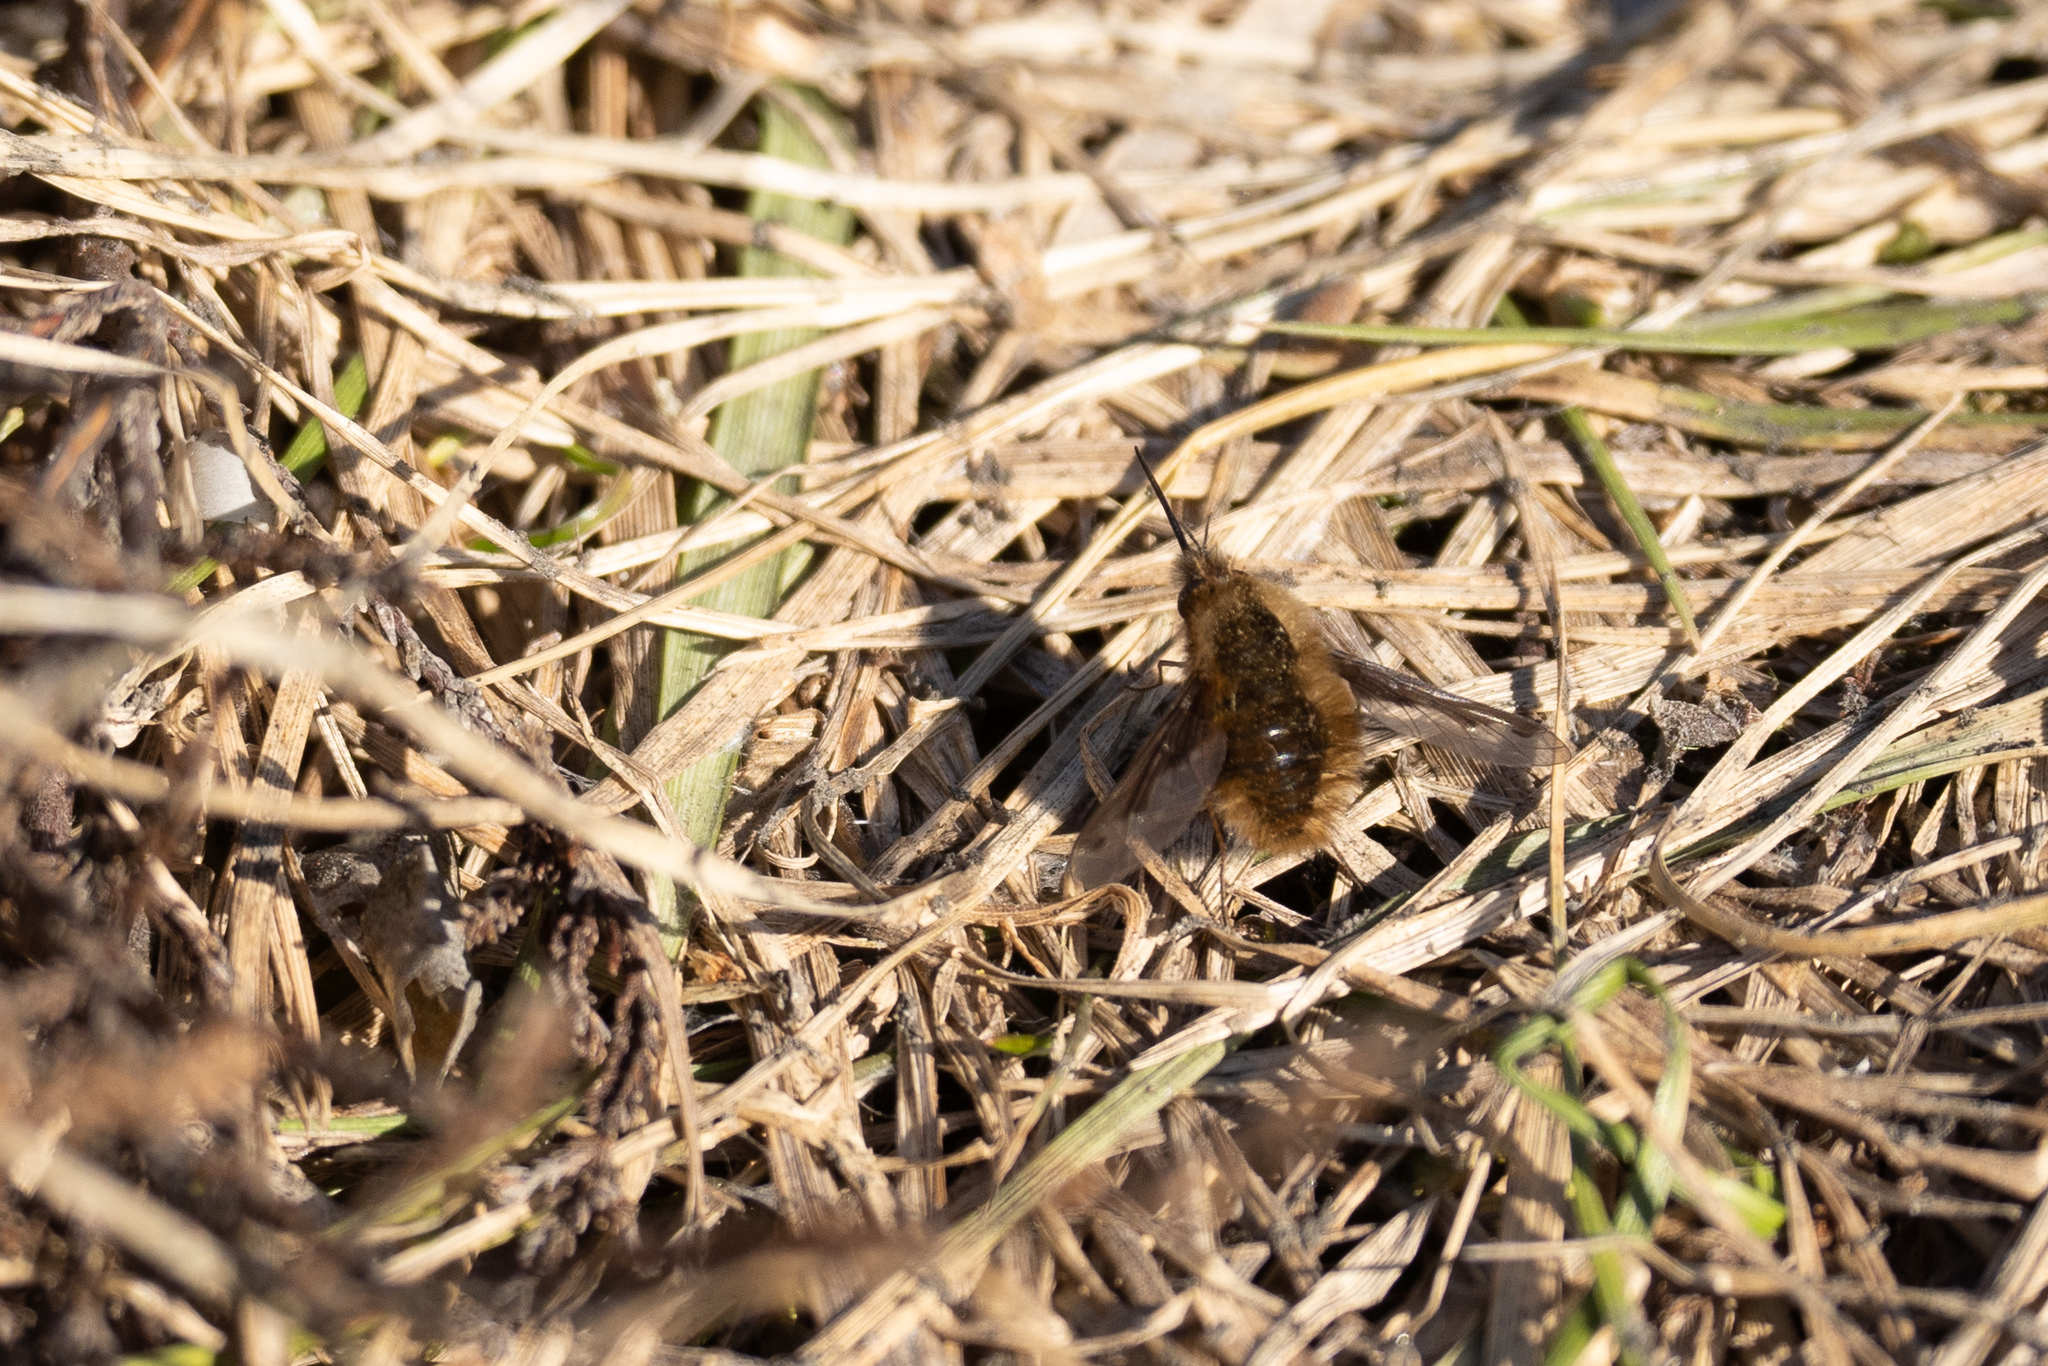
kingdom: Animalia
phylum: Arthropoda
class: Insecta
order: Diptera
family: Bombyliidae
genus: Bombylius
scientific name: Bombylius major
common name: Bee fly
